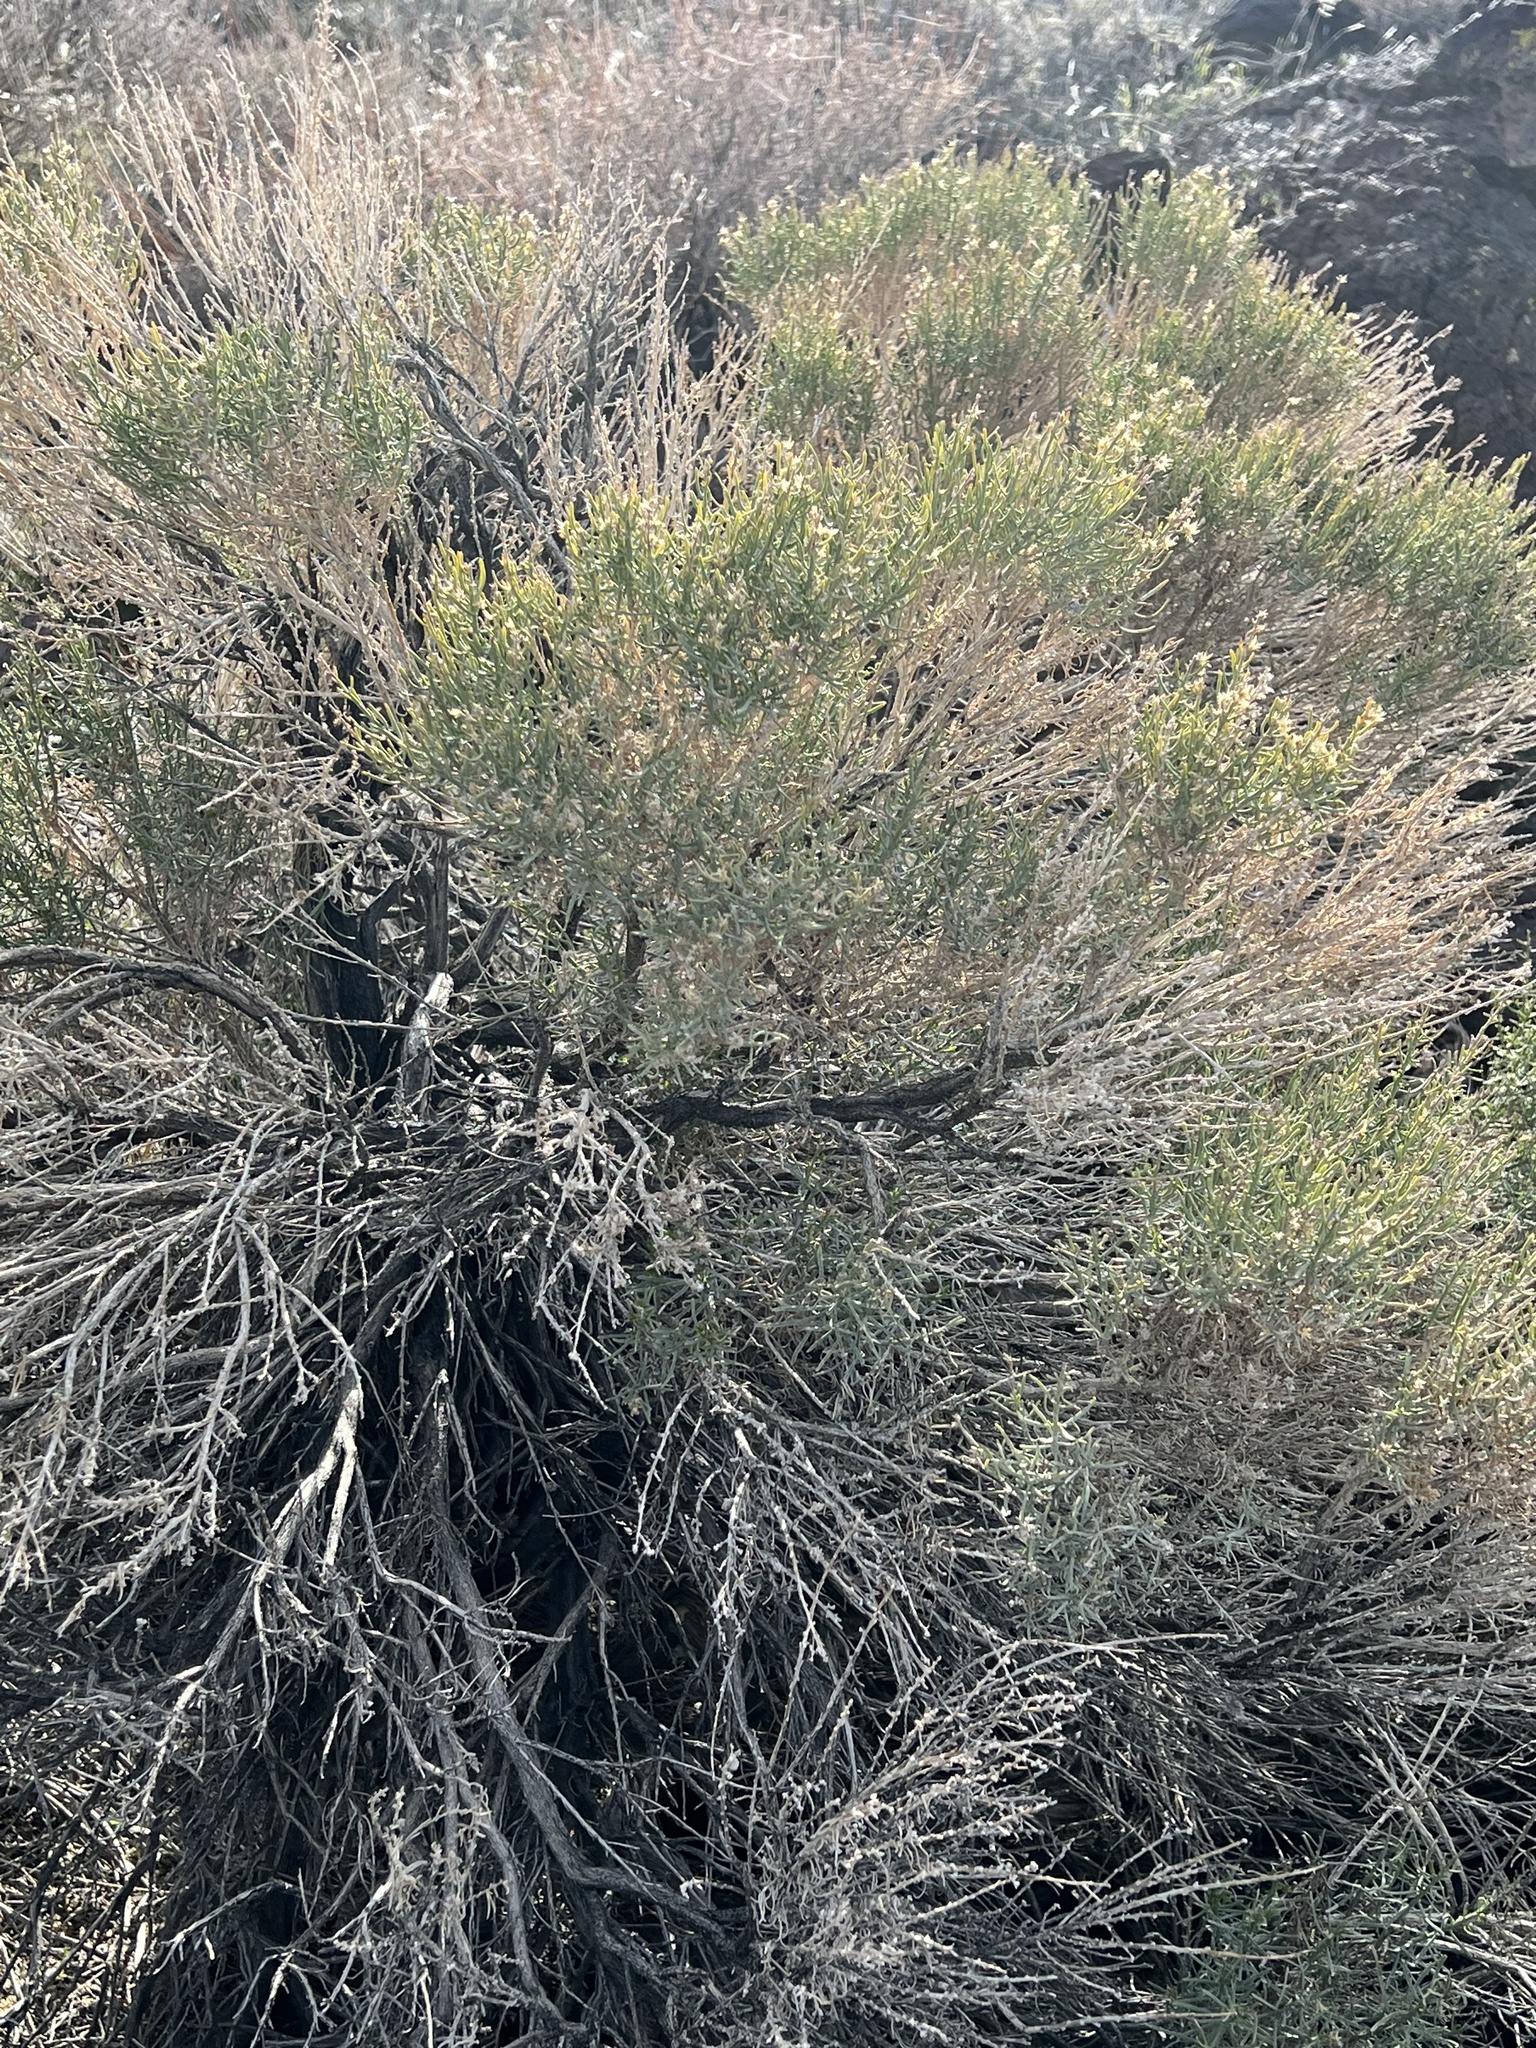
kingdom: Plantae
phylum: Tracheophyta
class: Magnoliopsida
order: Asterales
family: Asteraceae
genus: Ericameria
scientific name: Ericameria teretifolia
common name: Round-leaf rabbitbrush
